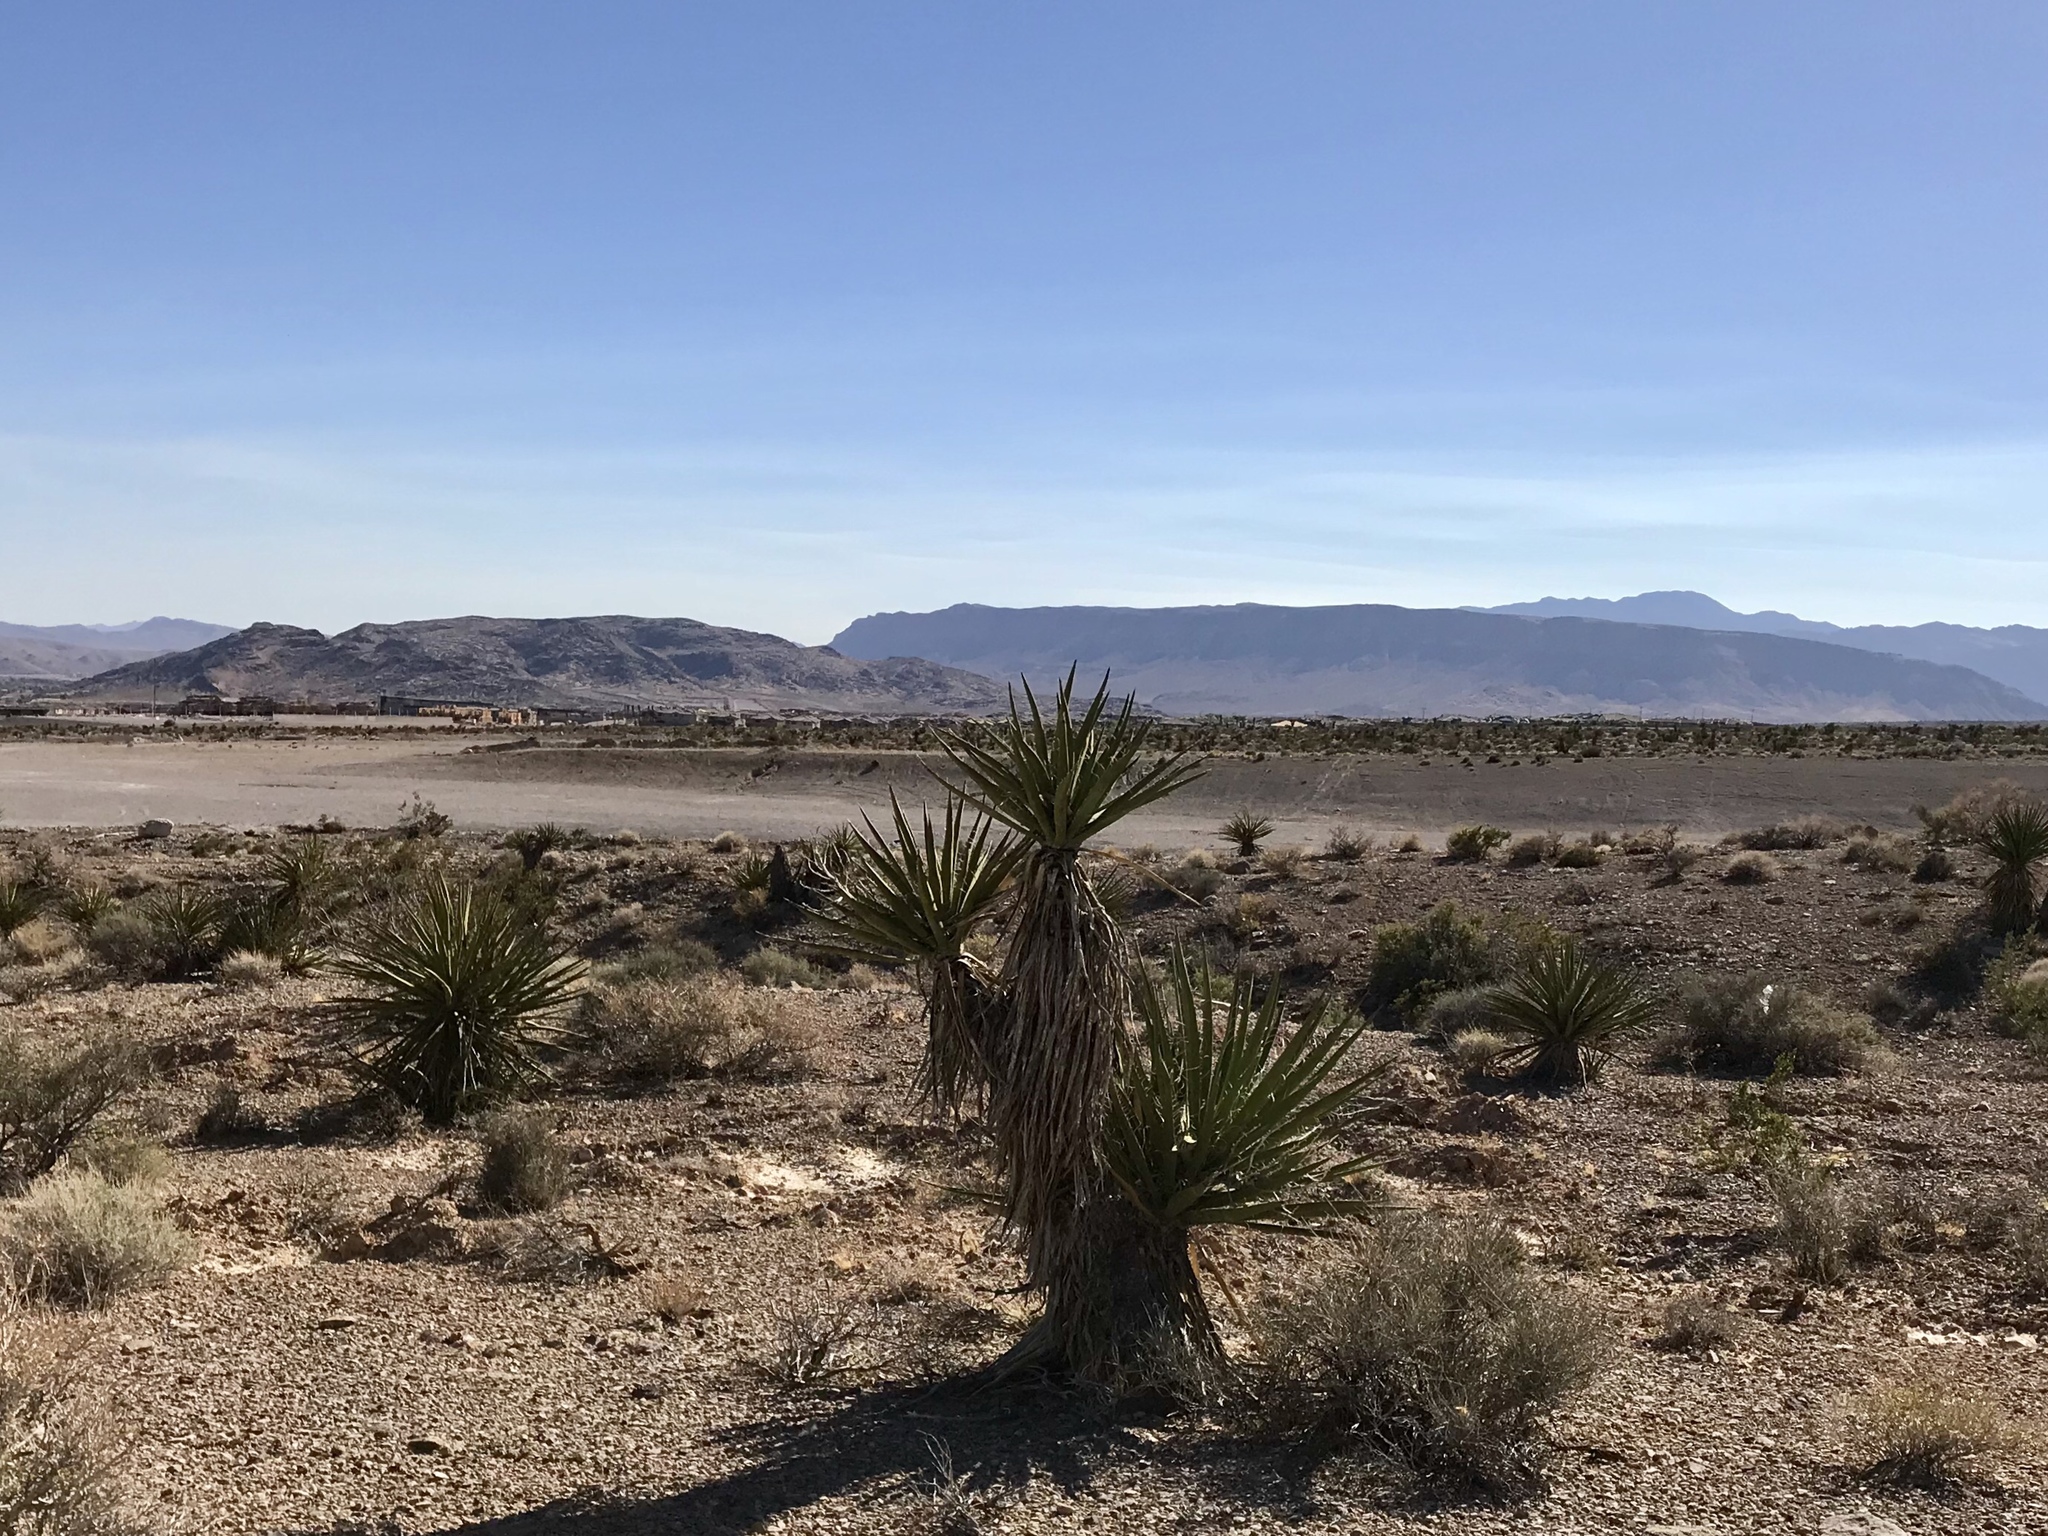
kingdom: Plantae
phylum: Tracheophyta
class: Liliopsida
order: Asparagales
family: Asparagaceae
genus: Yucca
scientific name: Yucca schidigera
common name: Mojave yucca
